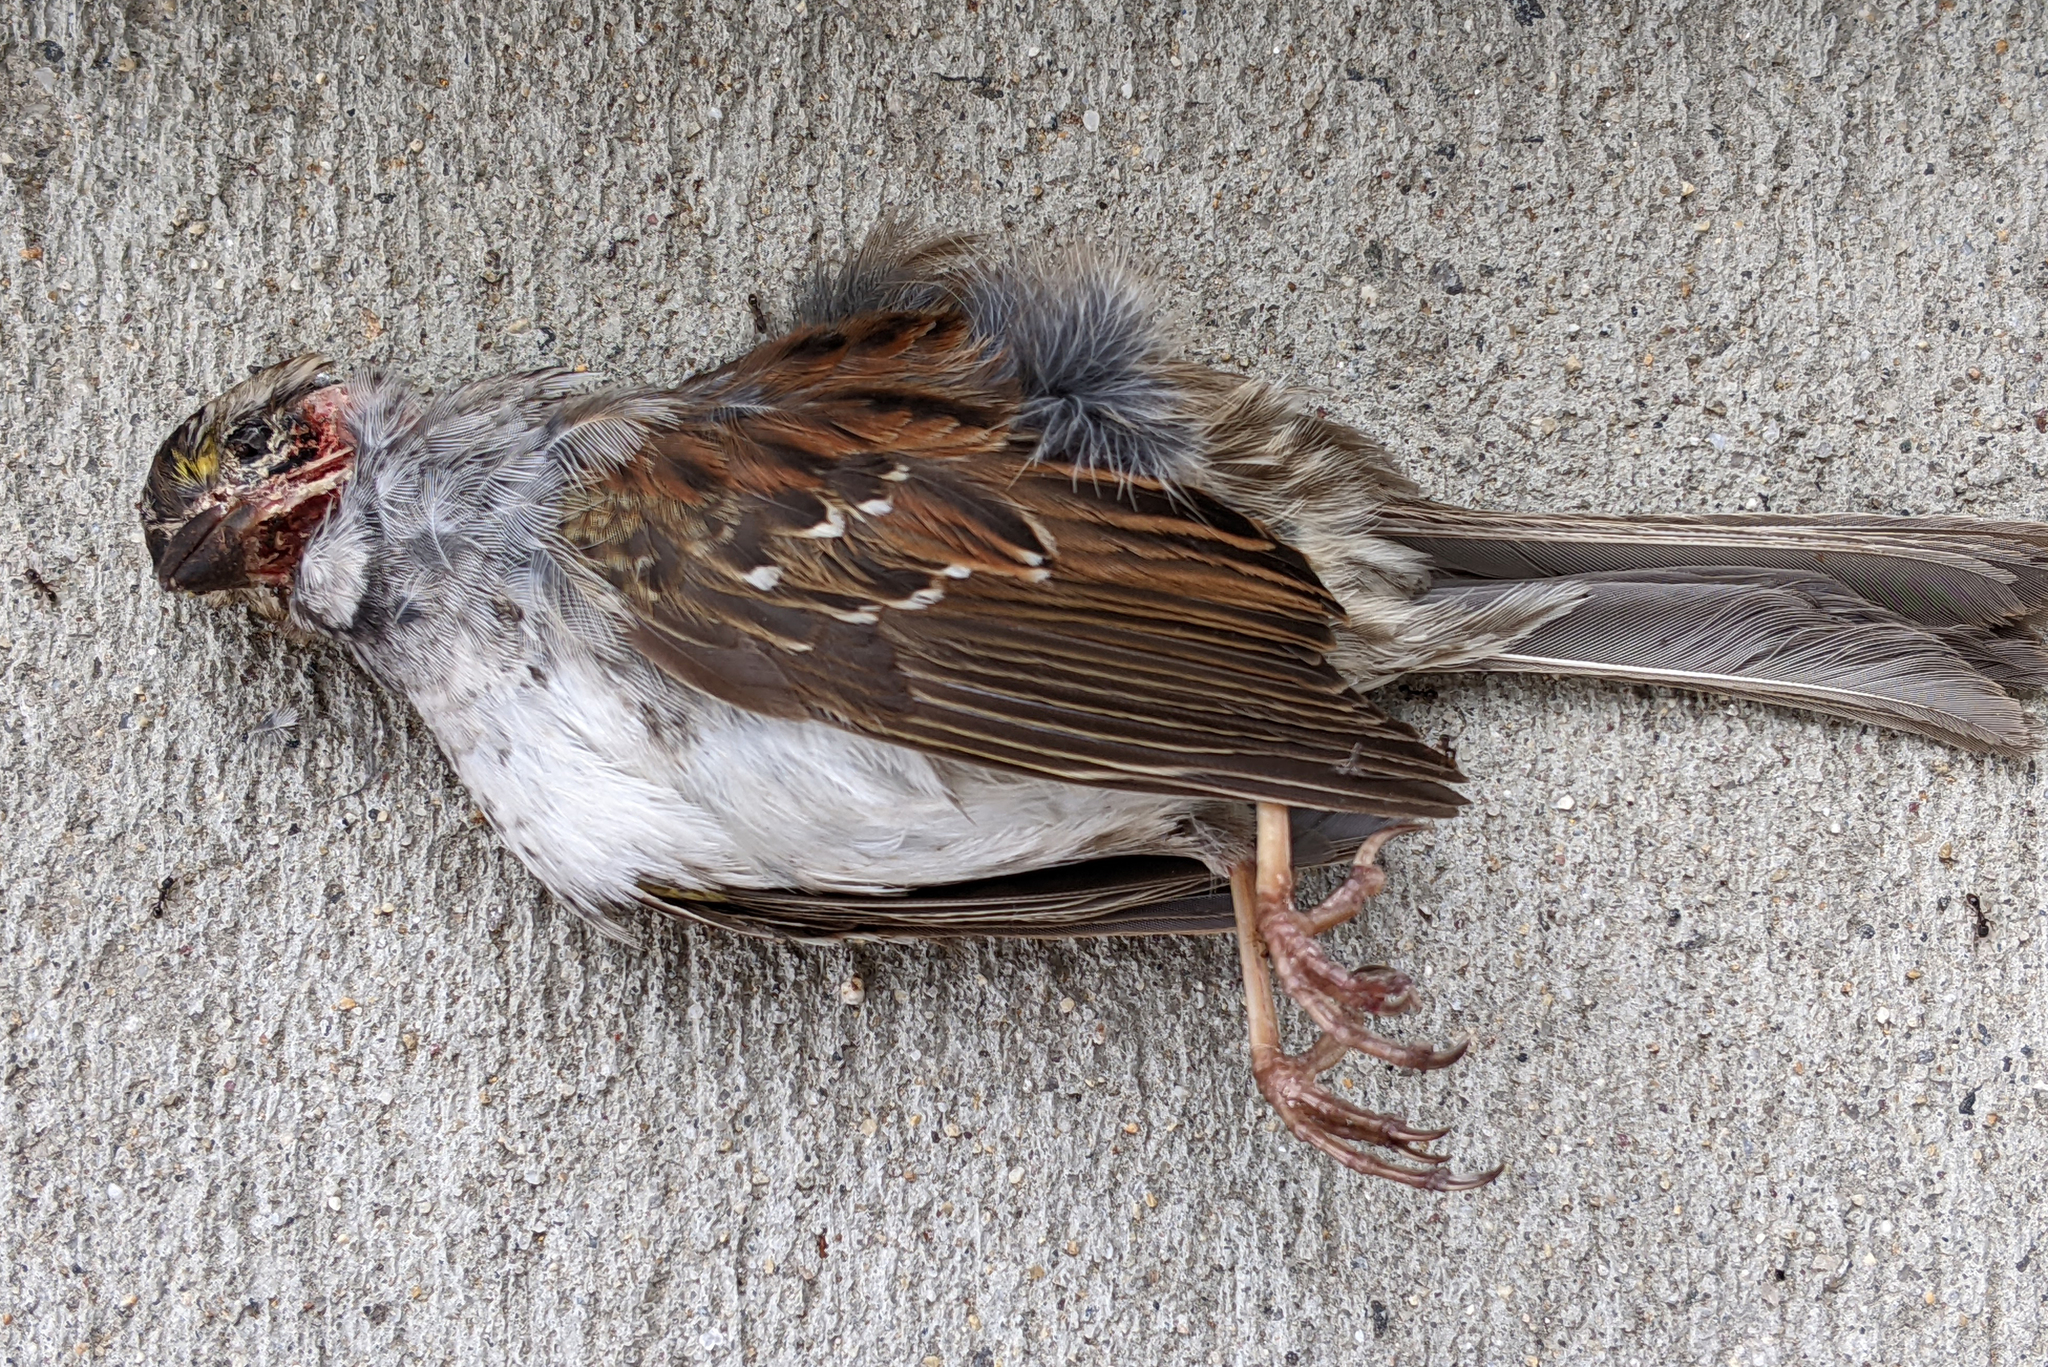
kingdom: Animalia
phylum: Chordata
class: Aves
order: Passeriformes
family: Passerellidae
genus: Zonotrichia
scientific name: Zonotrichia albicollis
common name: White-throated sparrow
